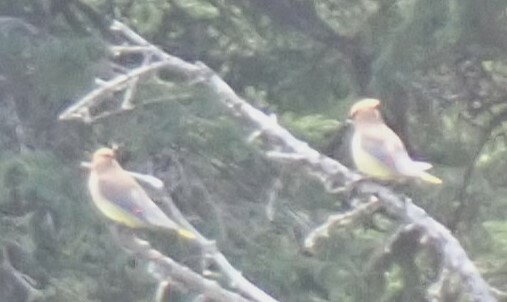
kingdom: Animalia
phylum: Chordata
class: Aves
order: Passeriformes
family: Bombycillidae
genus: Bombycilla
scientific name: Bombycilla cedrorum
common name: Cedar waxwing
